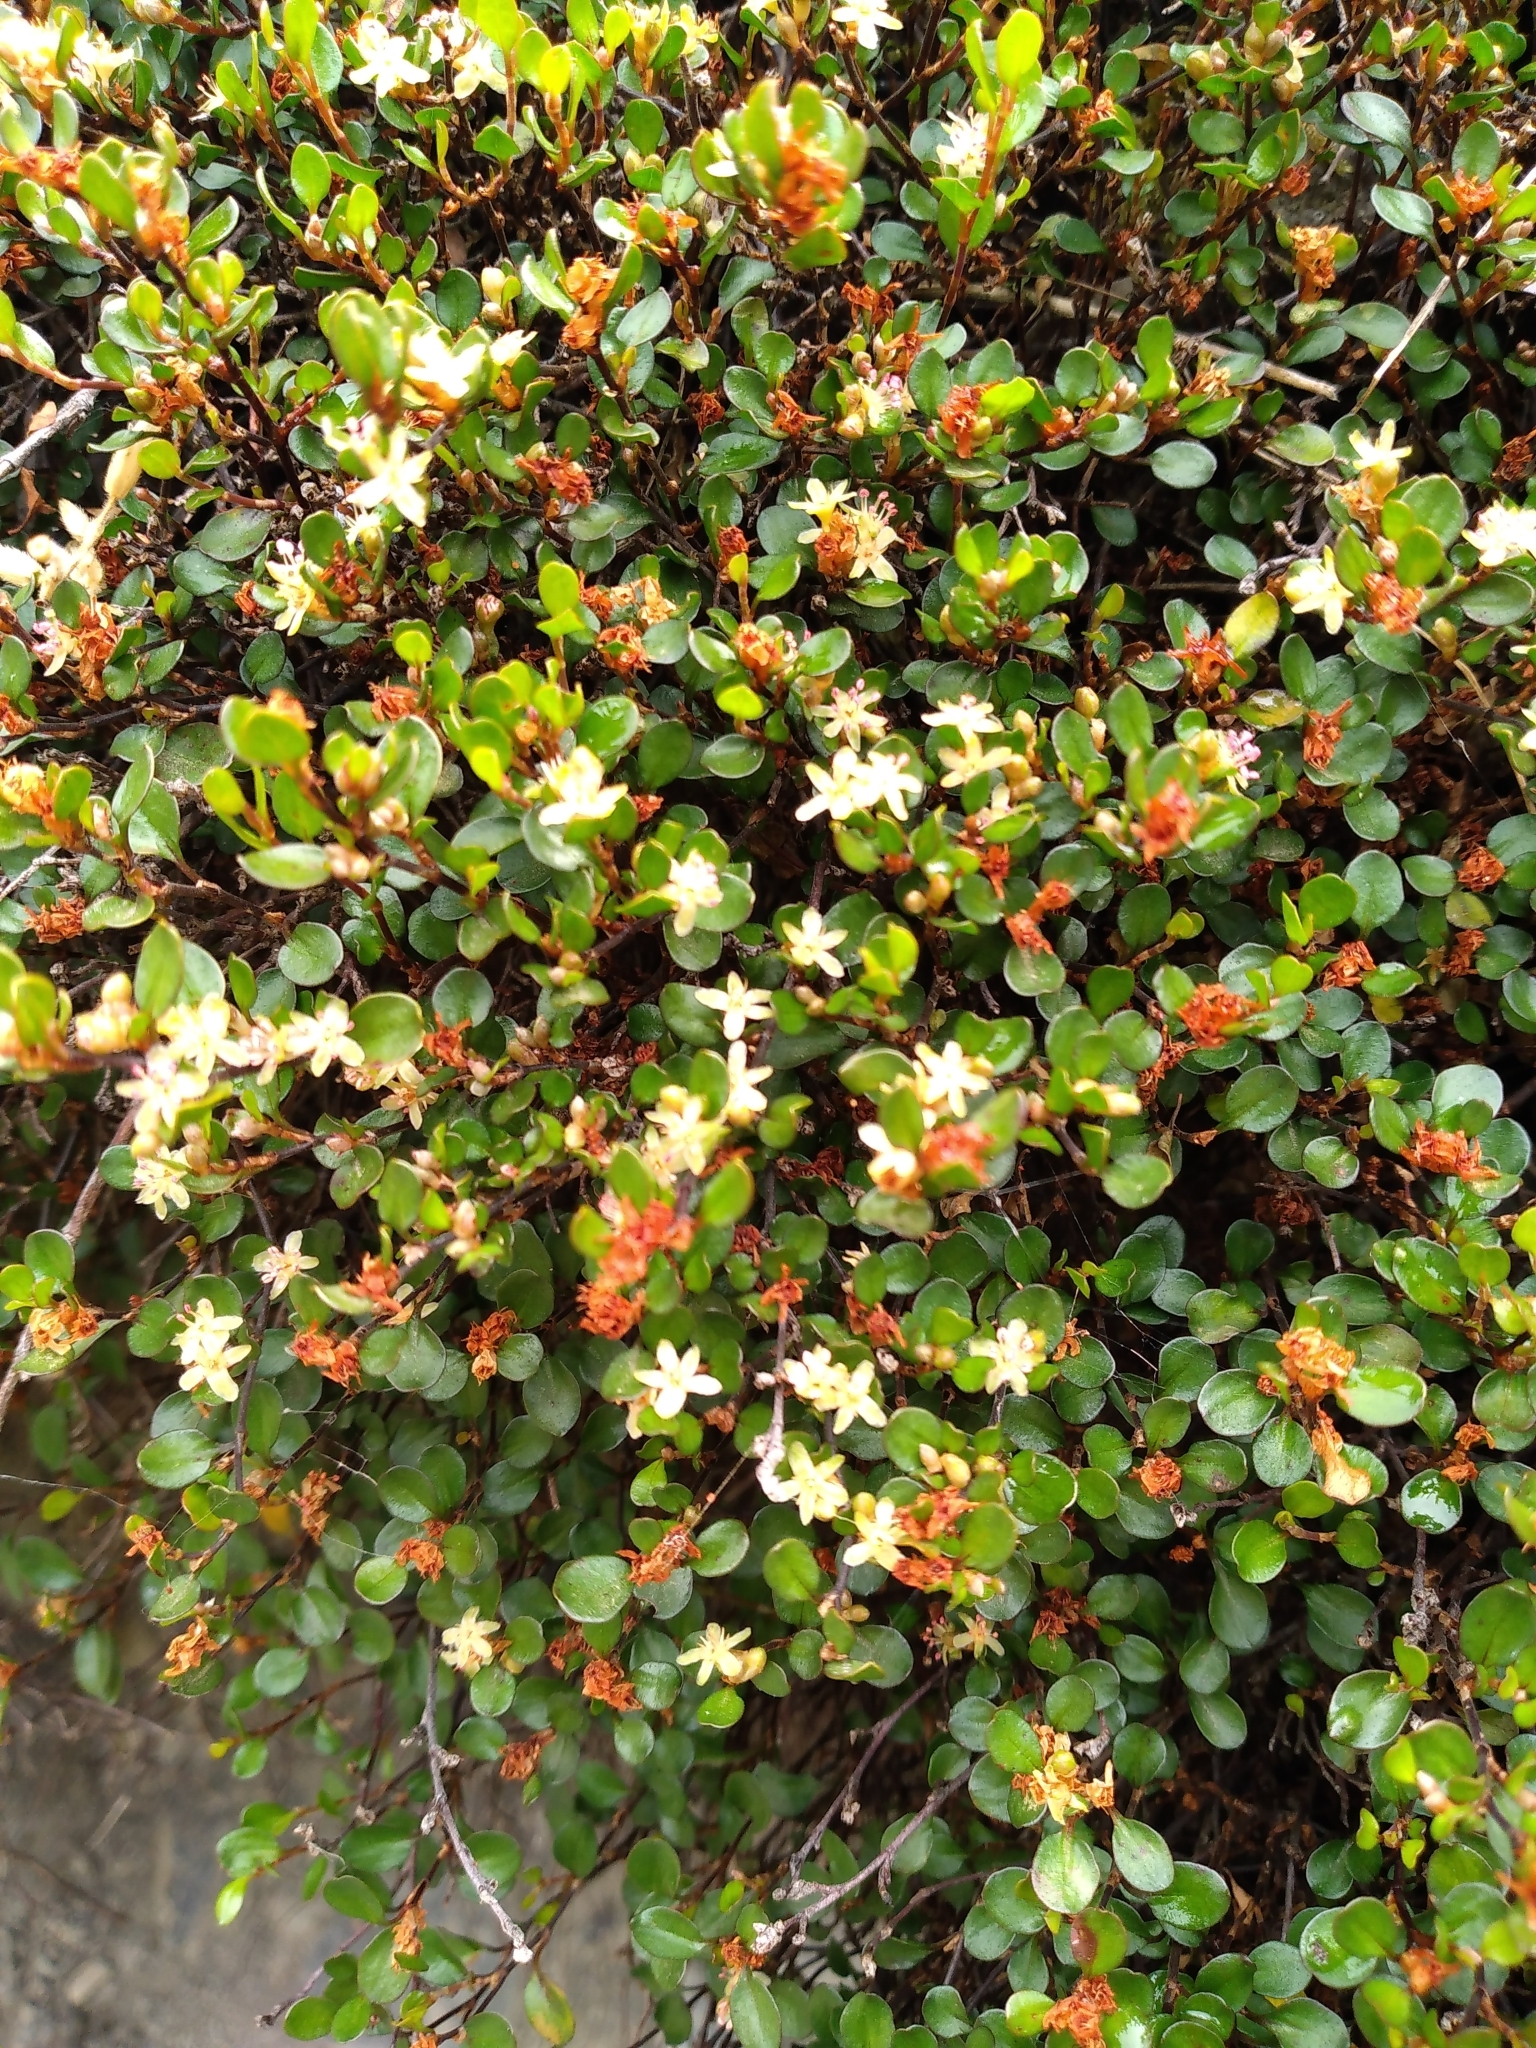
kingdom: Plantae
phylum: Tracheophyta
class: Magnoliopsida
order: Caryophyllales
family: Polygonaceae
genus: Muehlenbeckia
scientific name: Muehlenbeckia axillaris
